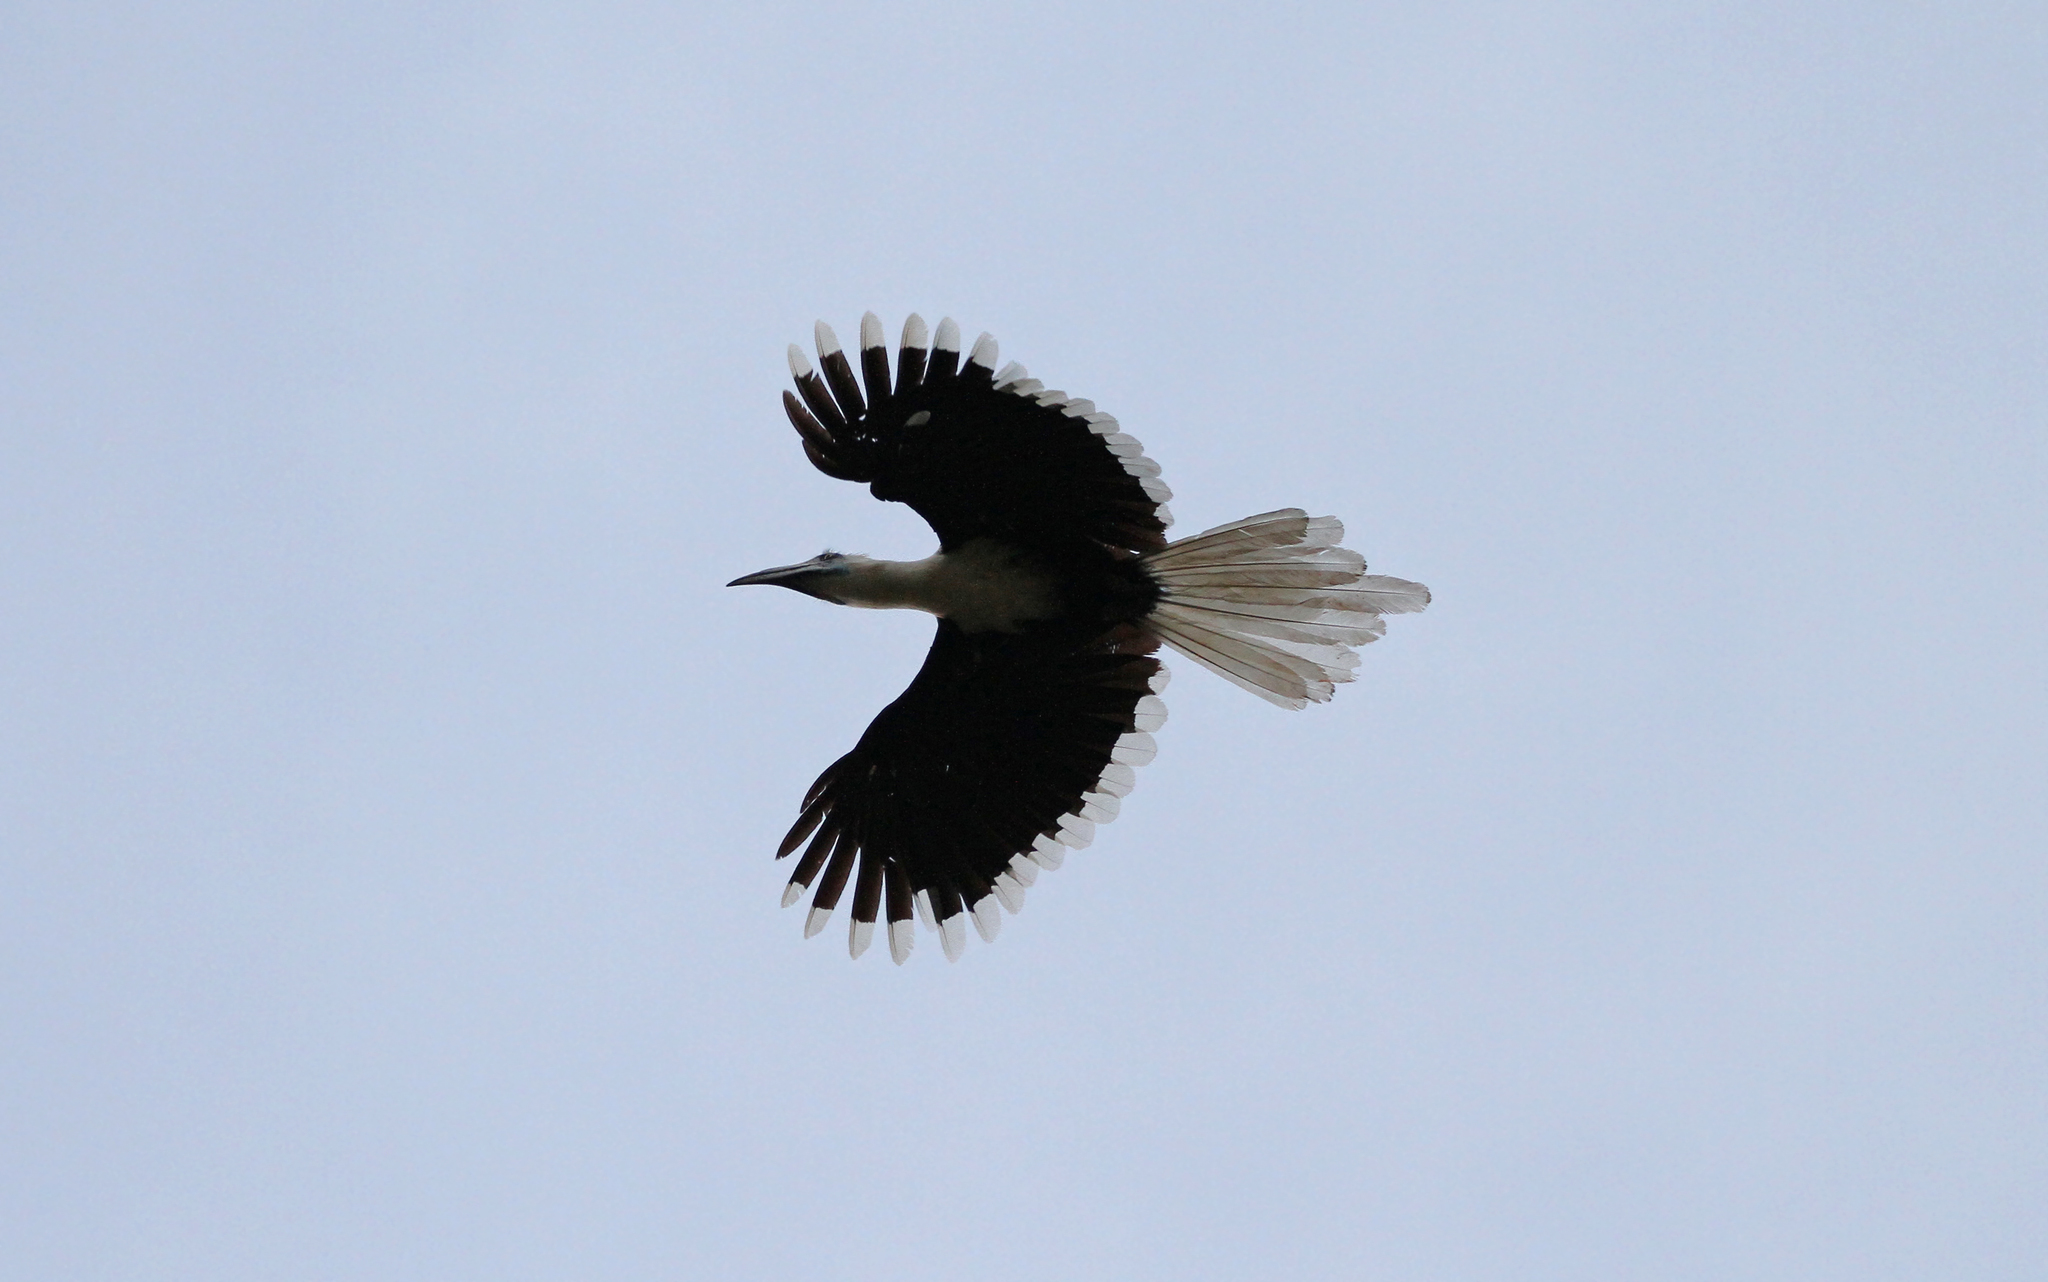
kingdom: Animalia
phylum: Chordata
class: Aves
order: Bucerotiformes
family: Bucerotidae
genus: Berenicornis
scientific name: Berenicornis comatus
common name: White-crowned hornbill
